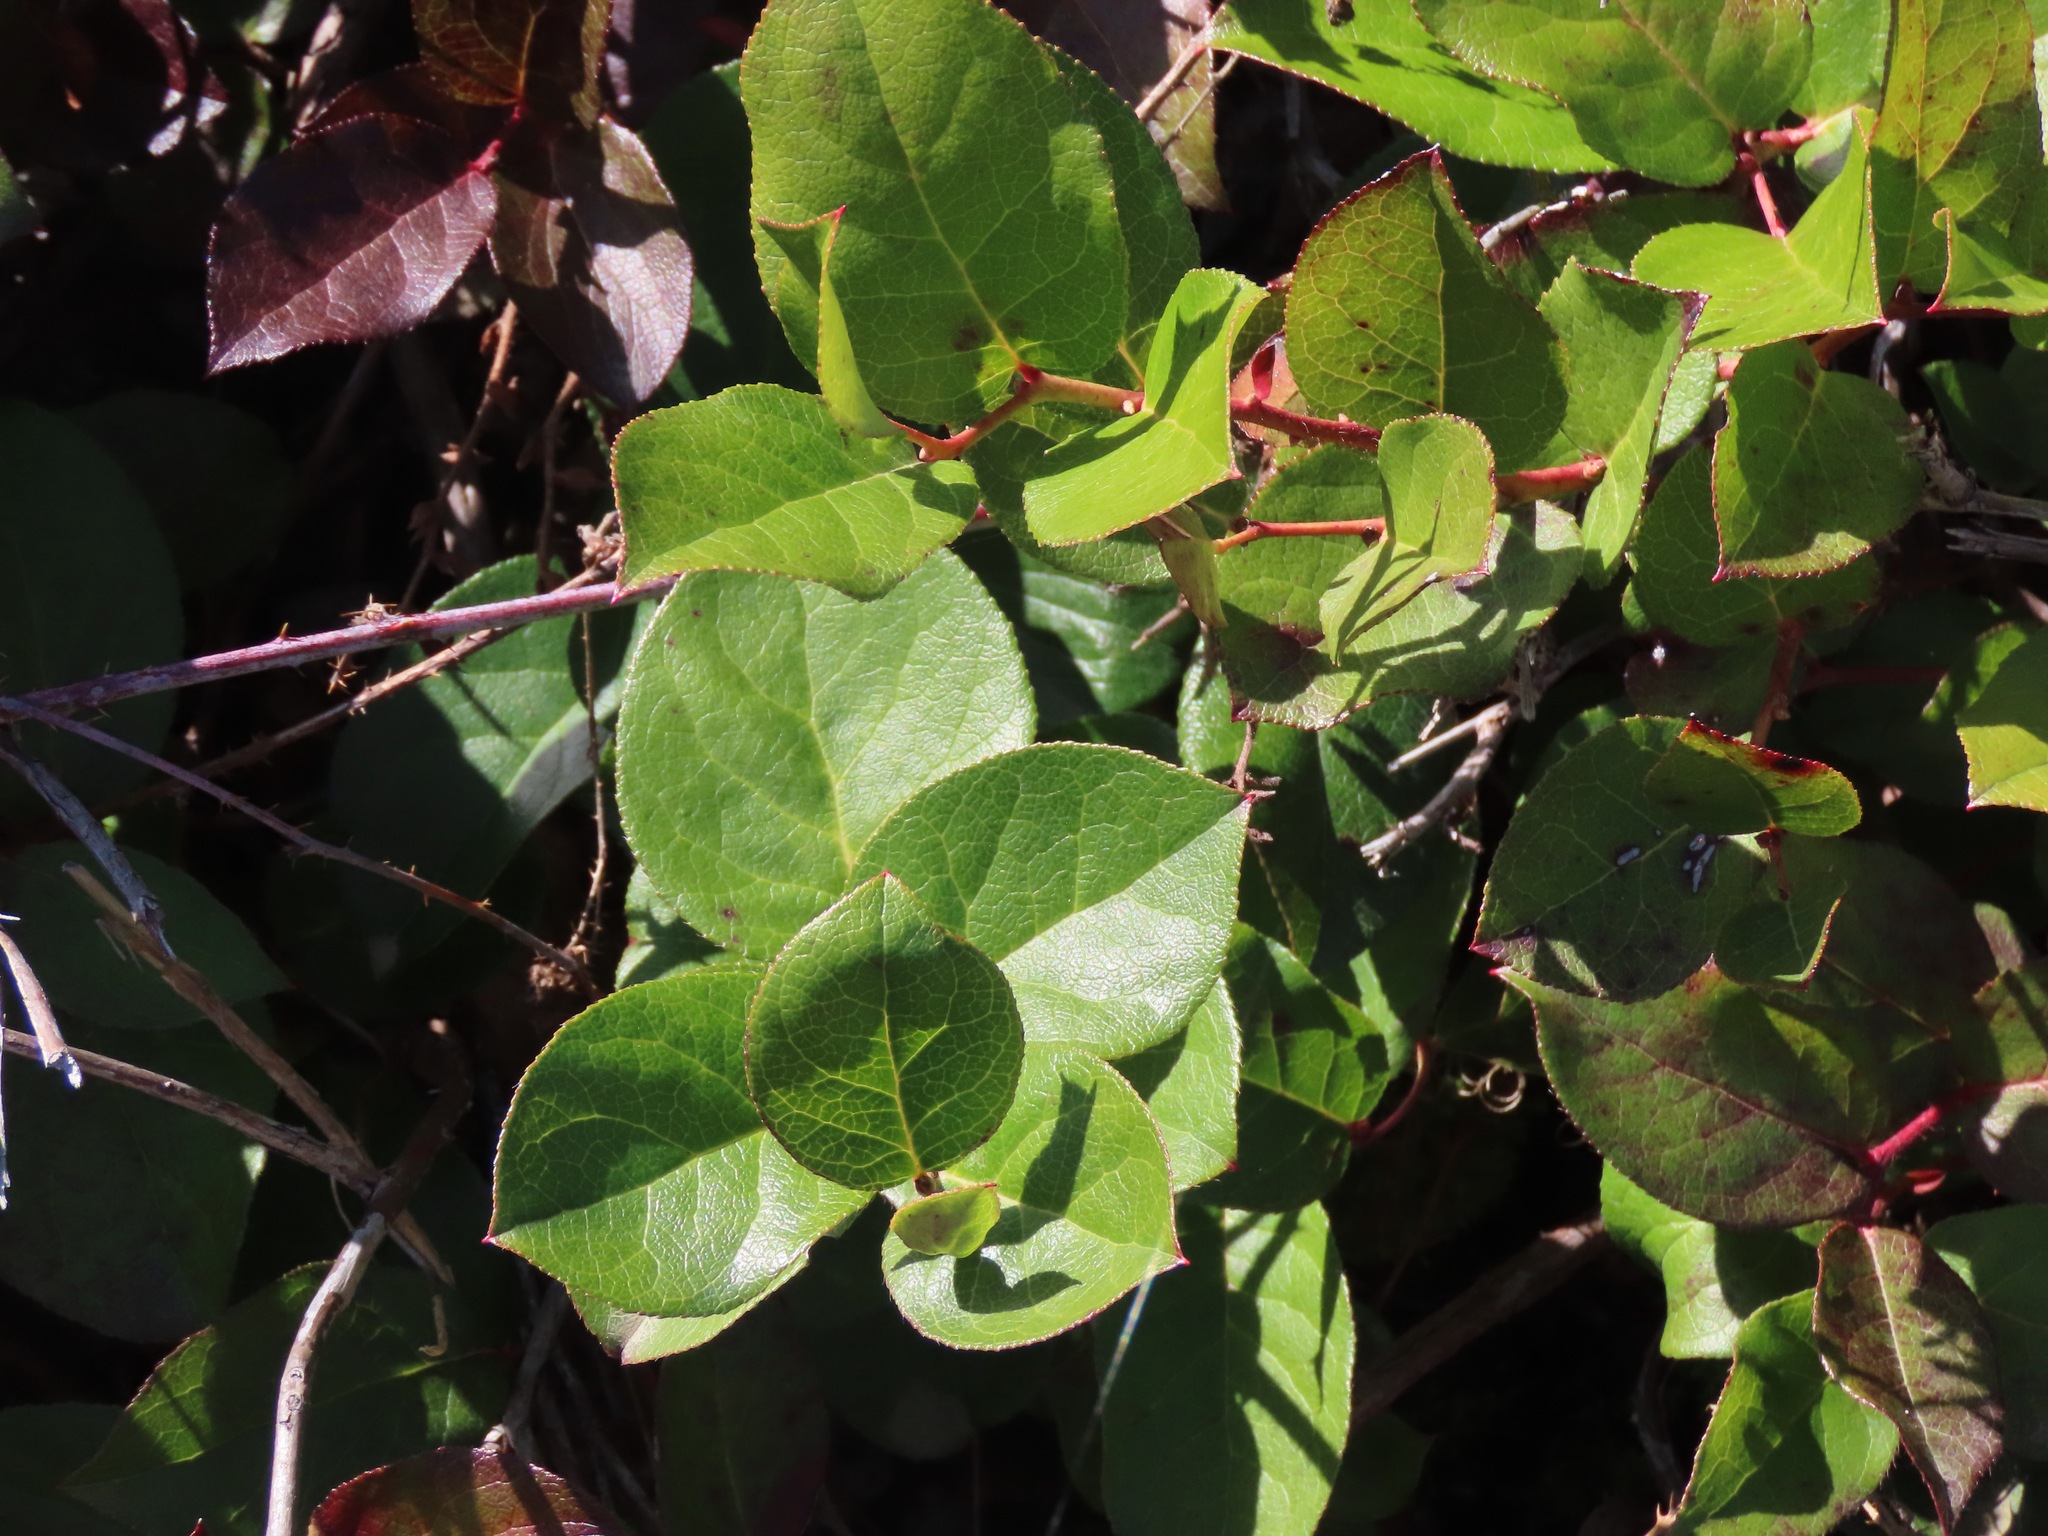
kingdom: Plantae
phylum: Tracheophyta
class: Magnoliopsida
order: Ericales
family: Ericaceae
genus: Gaultheria
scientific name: Gaultheria shallon
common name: Shallon
